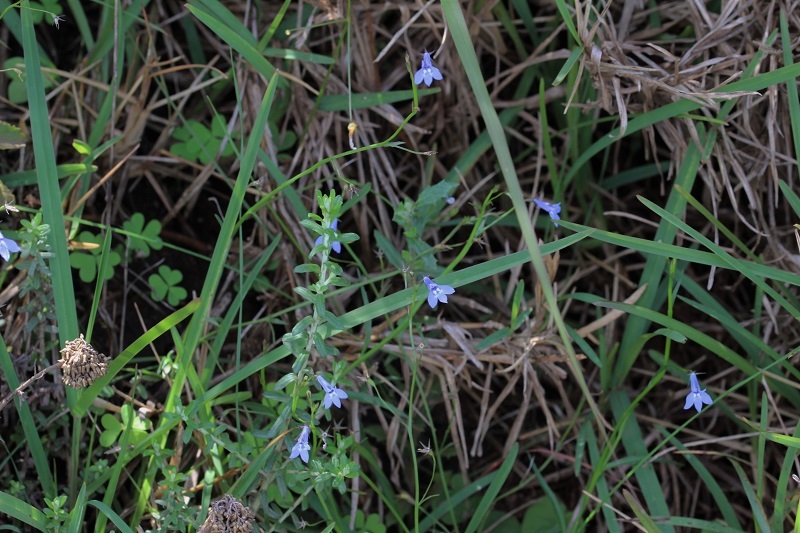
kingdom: Plantae
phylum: Tracheophyta
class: Magnoliopsida
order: Asterales
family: Campanulaceae
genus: Lobelia
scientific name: Lobelia flaccida
